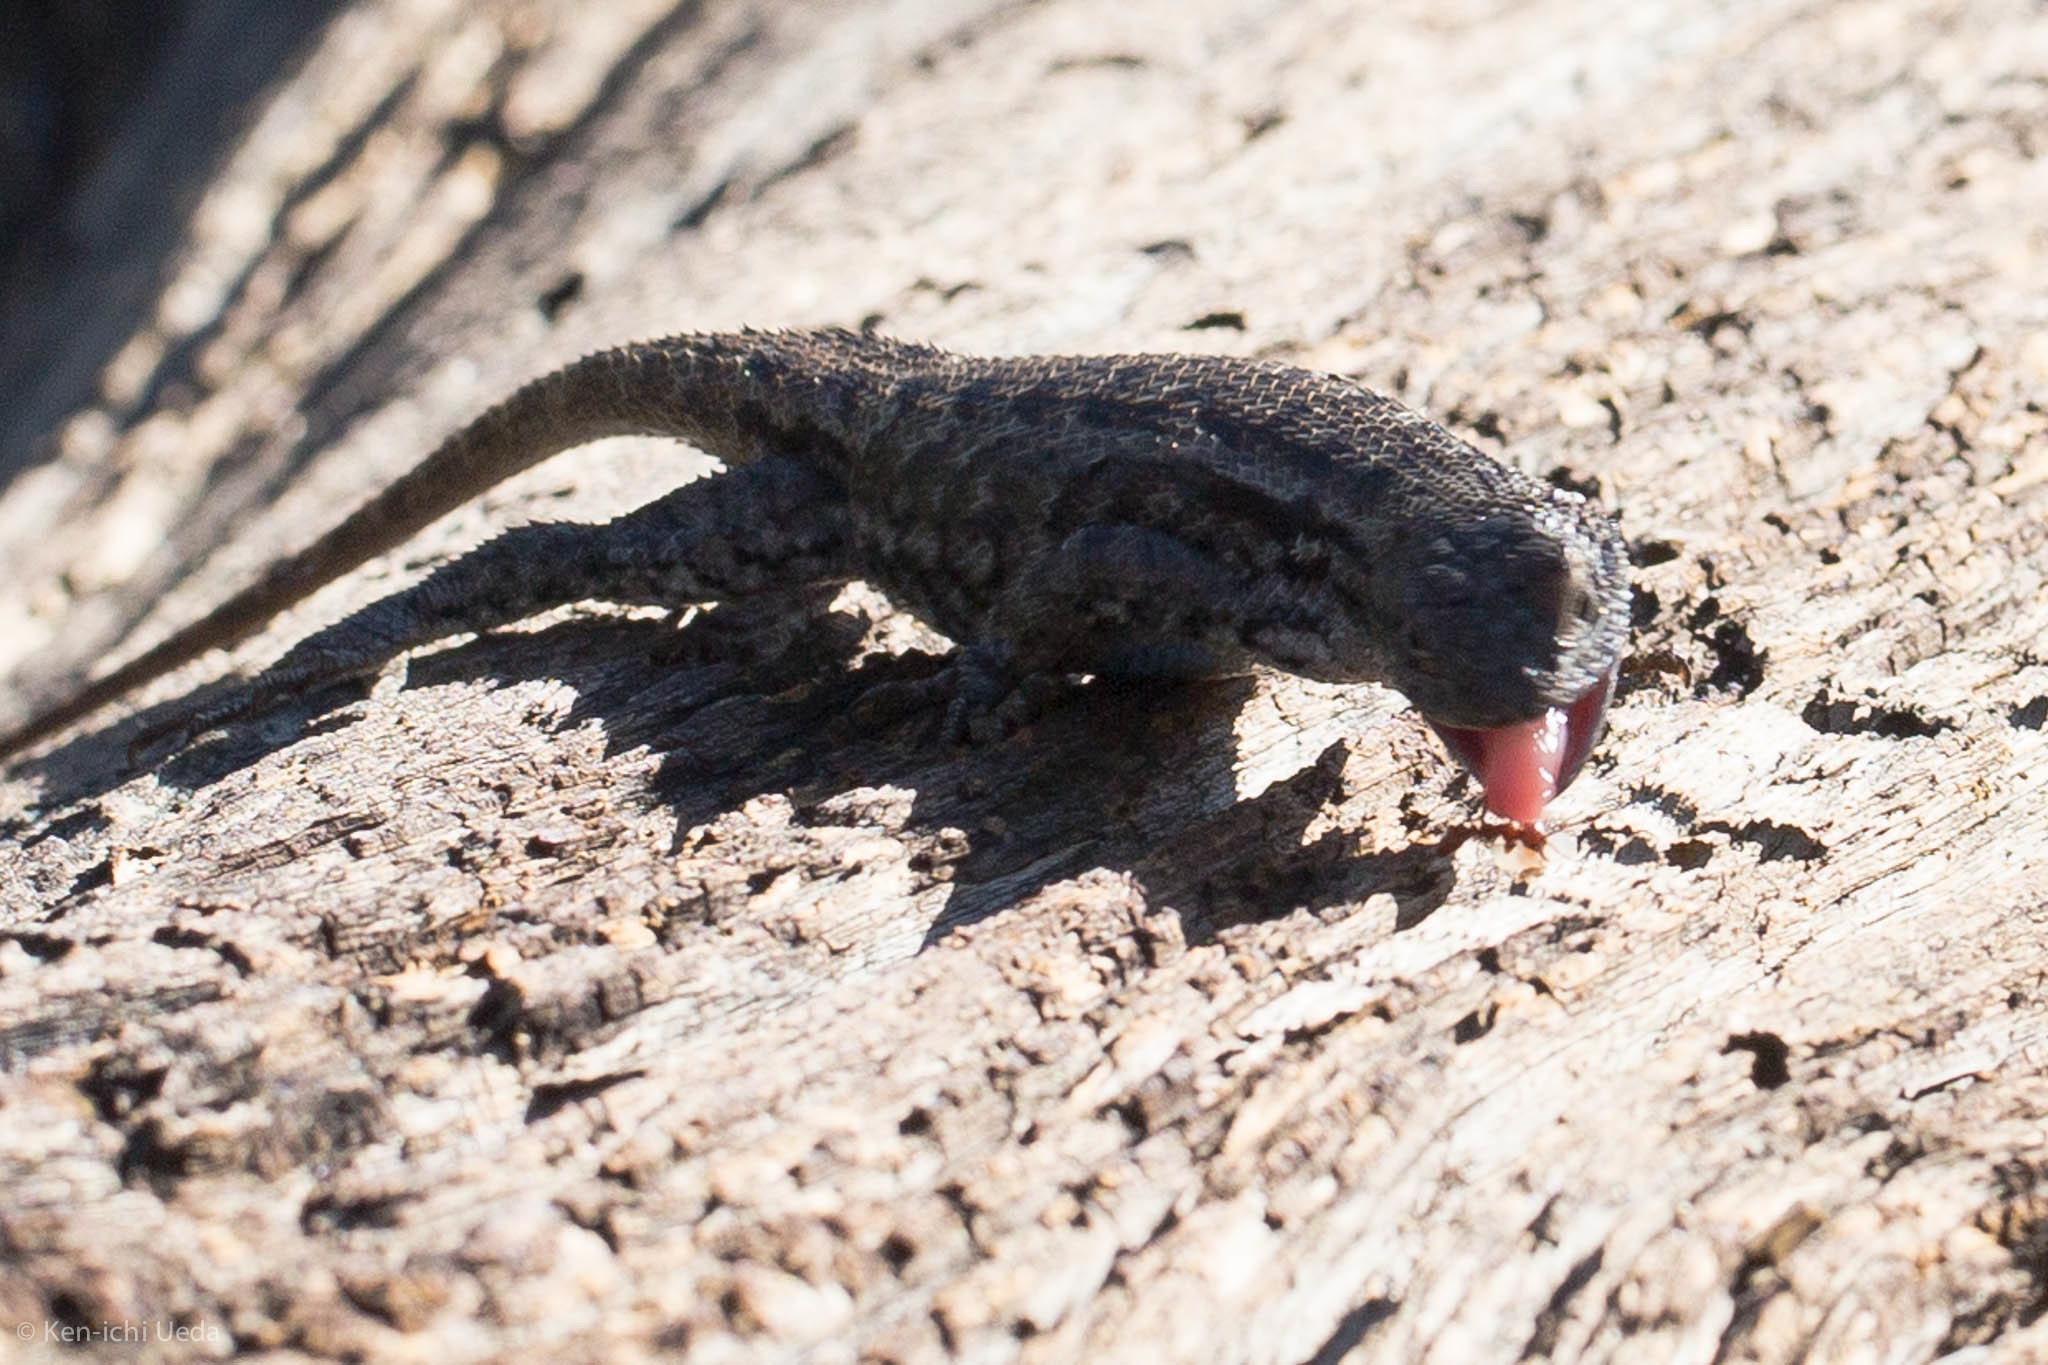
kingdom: Animalia
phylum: Chordata
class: Squamata
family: Phrynosomatidae
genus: Sceloporus
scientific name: Sceloporus occidentalis
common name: Western fence lizard
